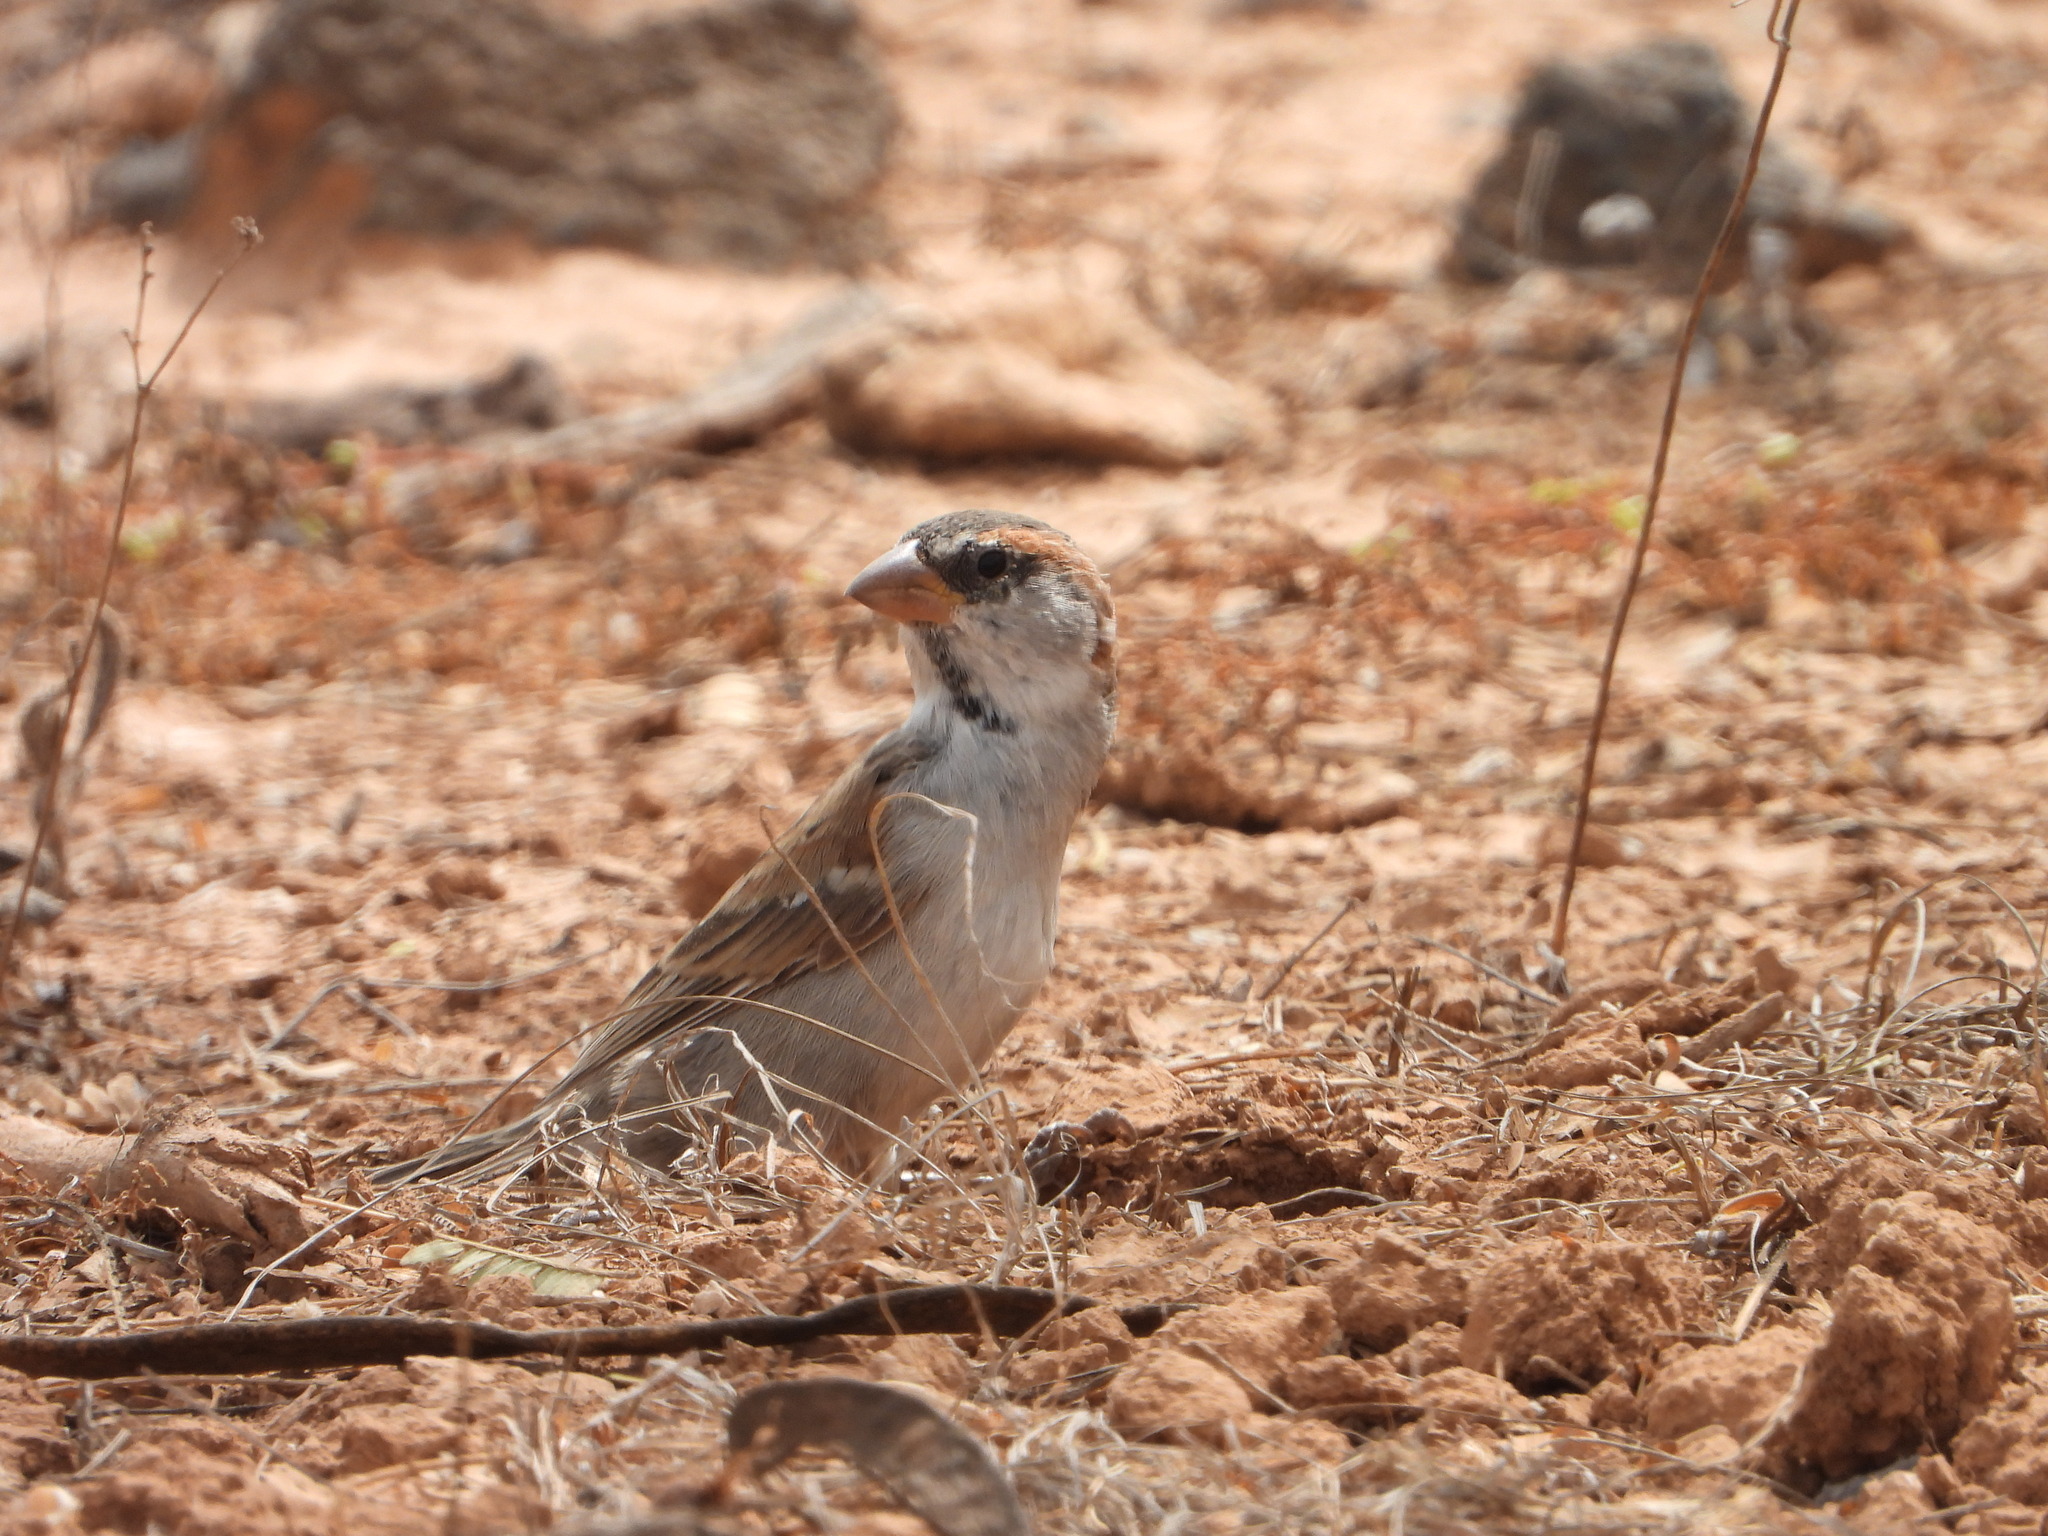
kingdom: Animalia
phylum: Chordata
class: Aves
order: Passeriformes
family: Passeridae
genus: Passer
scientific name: Passer iagoensis
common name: Iago sparrow
